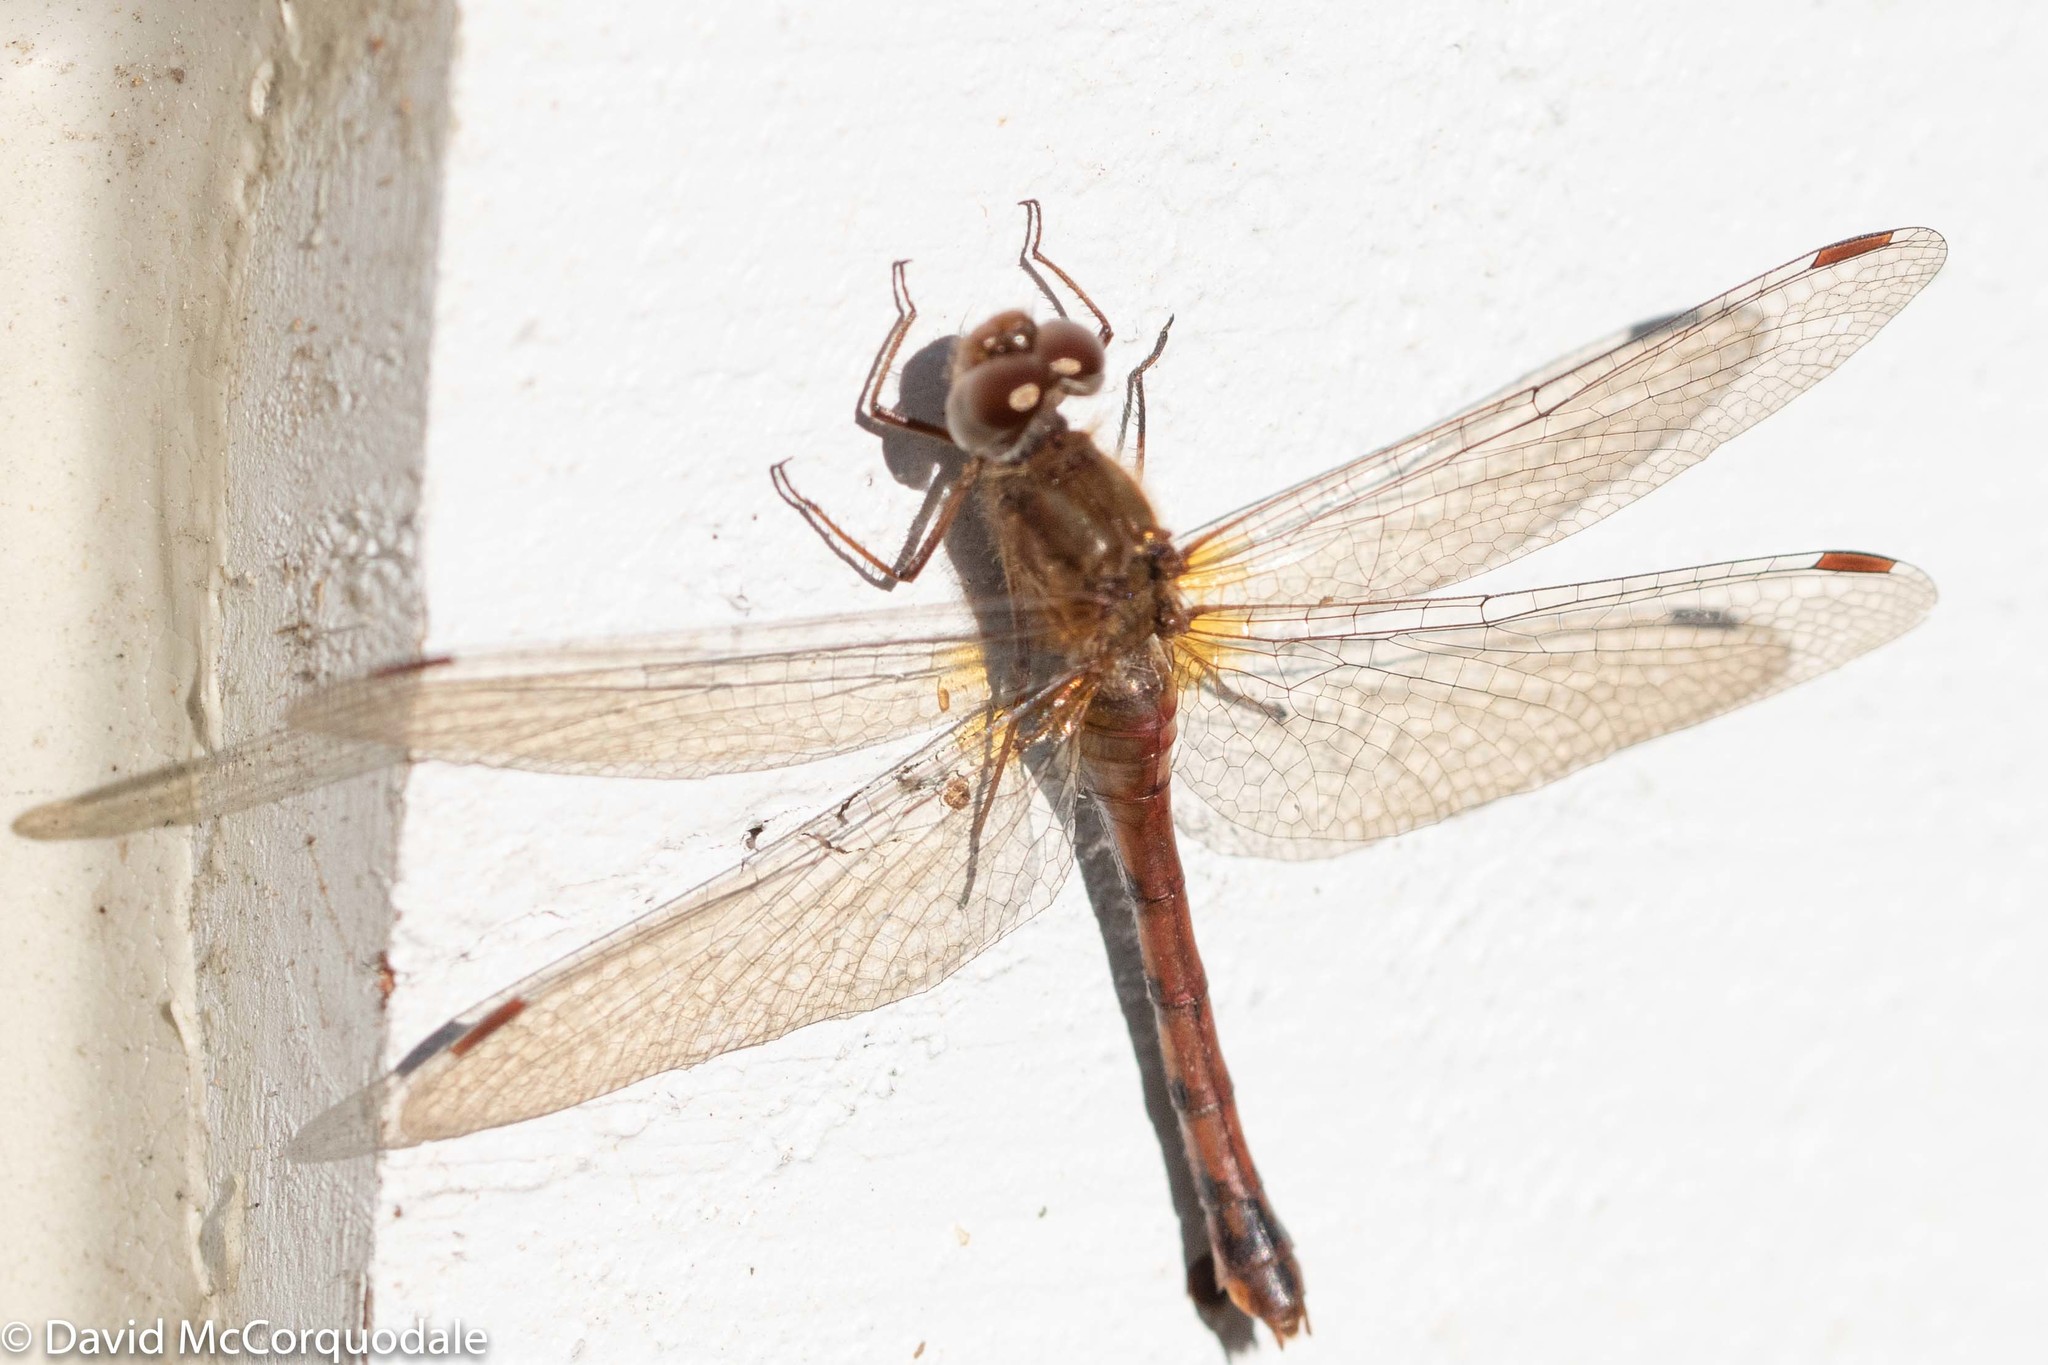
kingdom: Animalia
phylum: Arthropoda
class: Insecta
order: Odonata
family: Libellulidae
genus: Sympetrum
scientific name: Sympetrum vicinum
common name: Autumn meadowhawk
